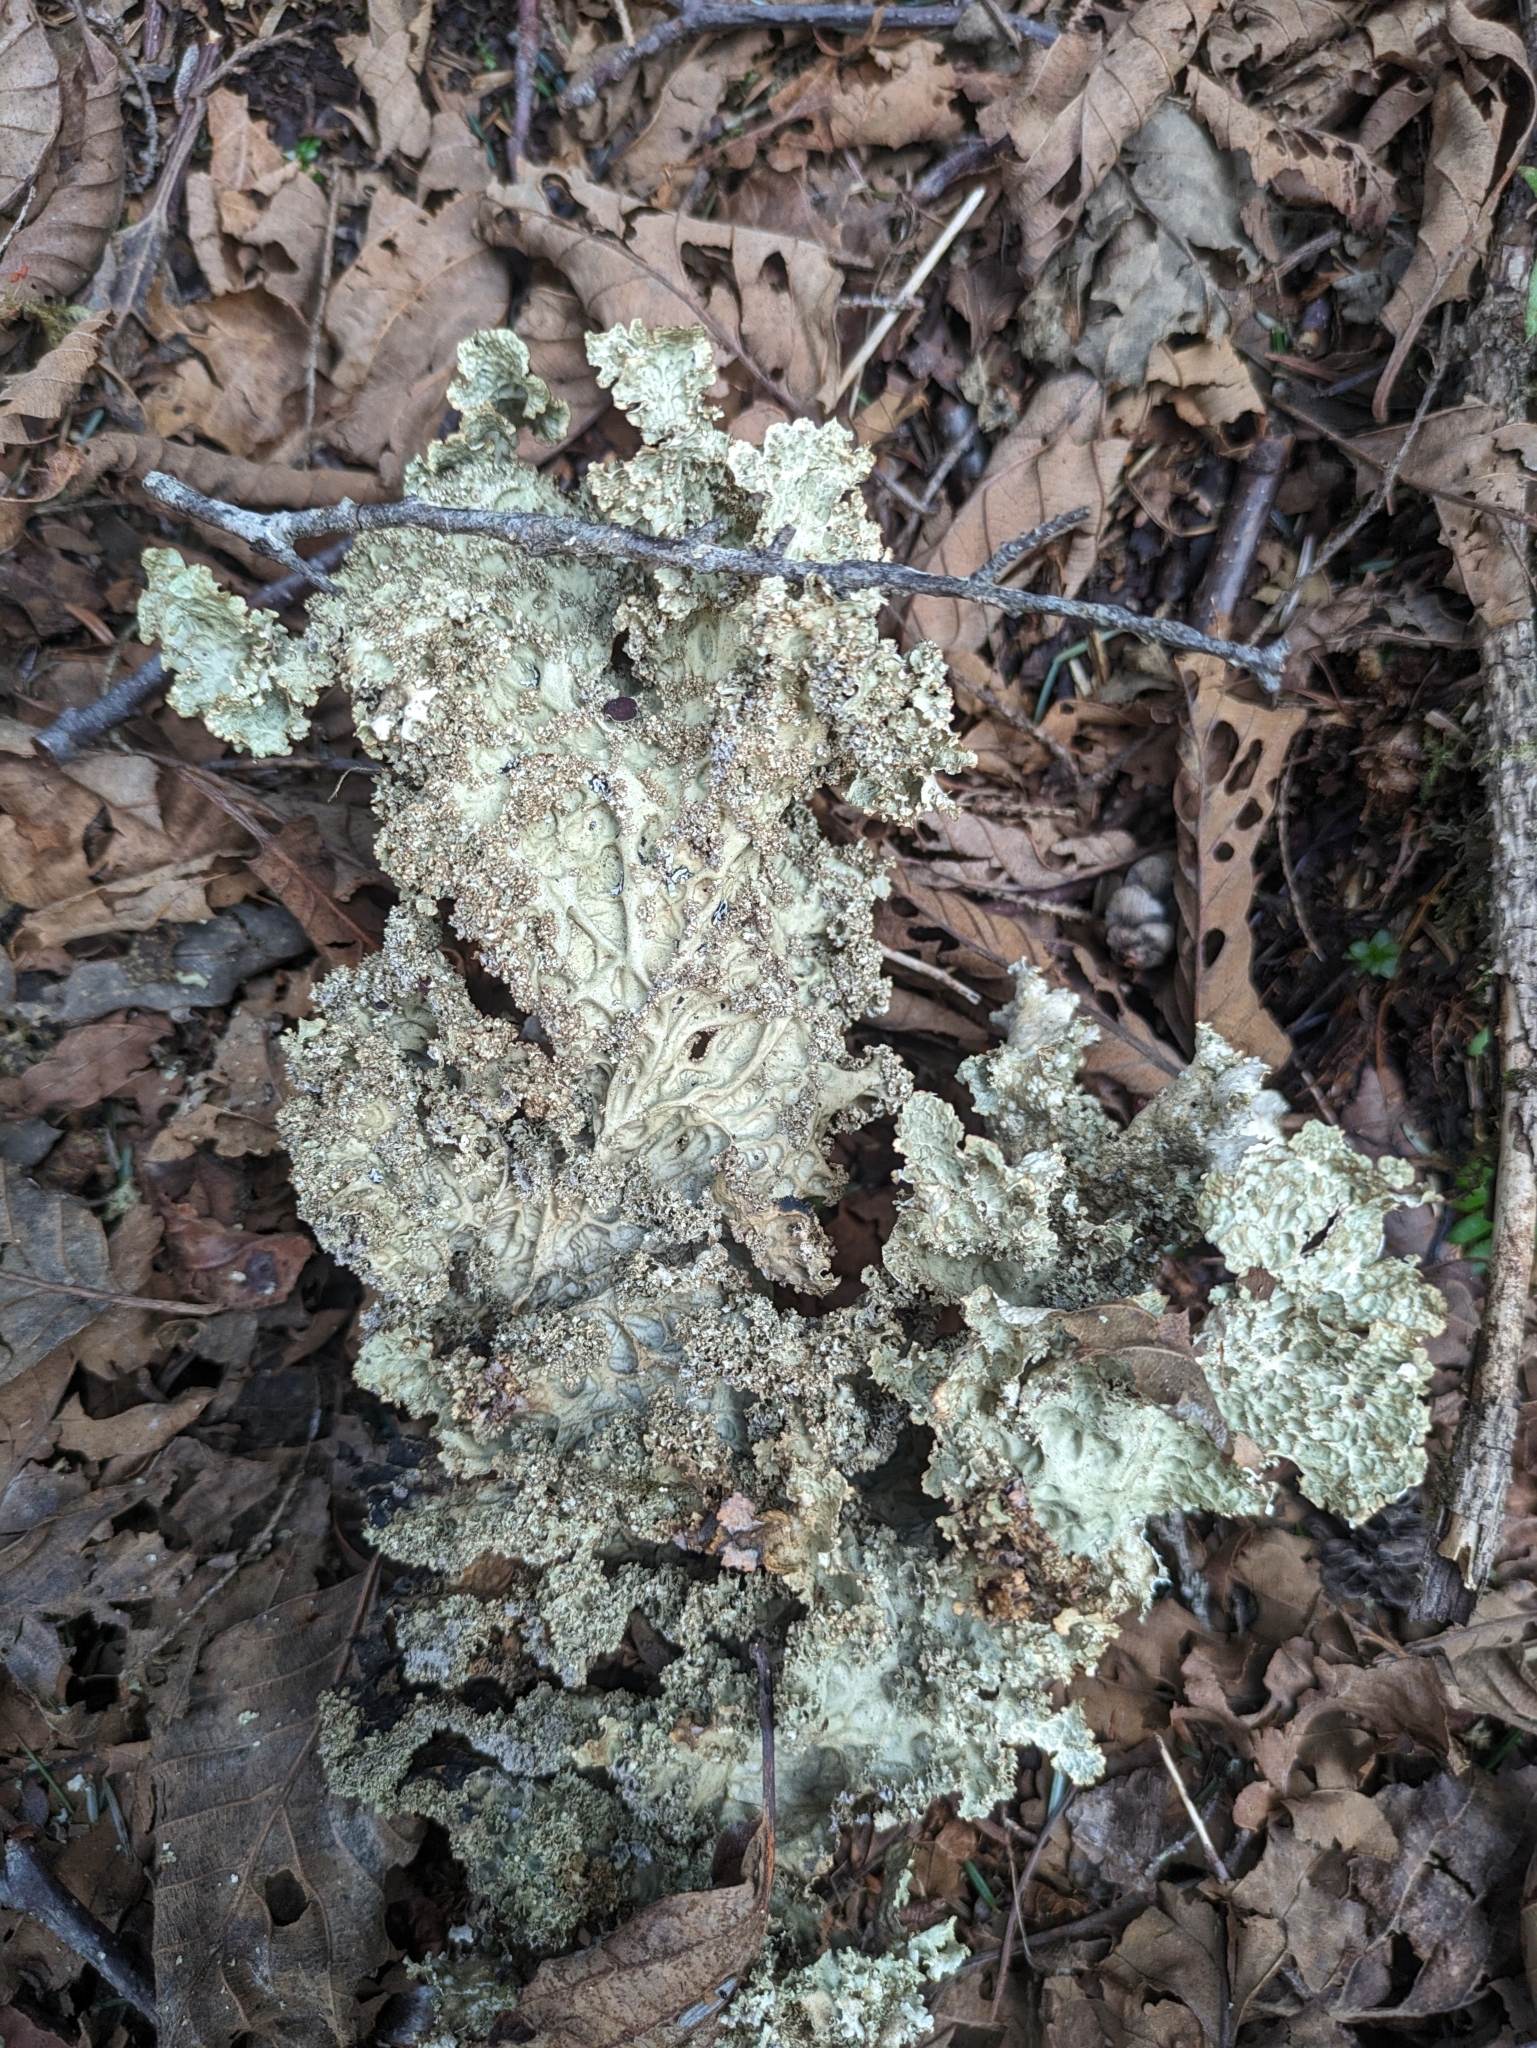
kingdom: Fungi
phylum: Ascomycota
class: Lecanoromycetes
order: Peltigerales
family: Lobariaceae
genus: Lobaria
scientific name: Lobaria oregana
